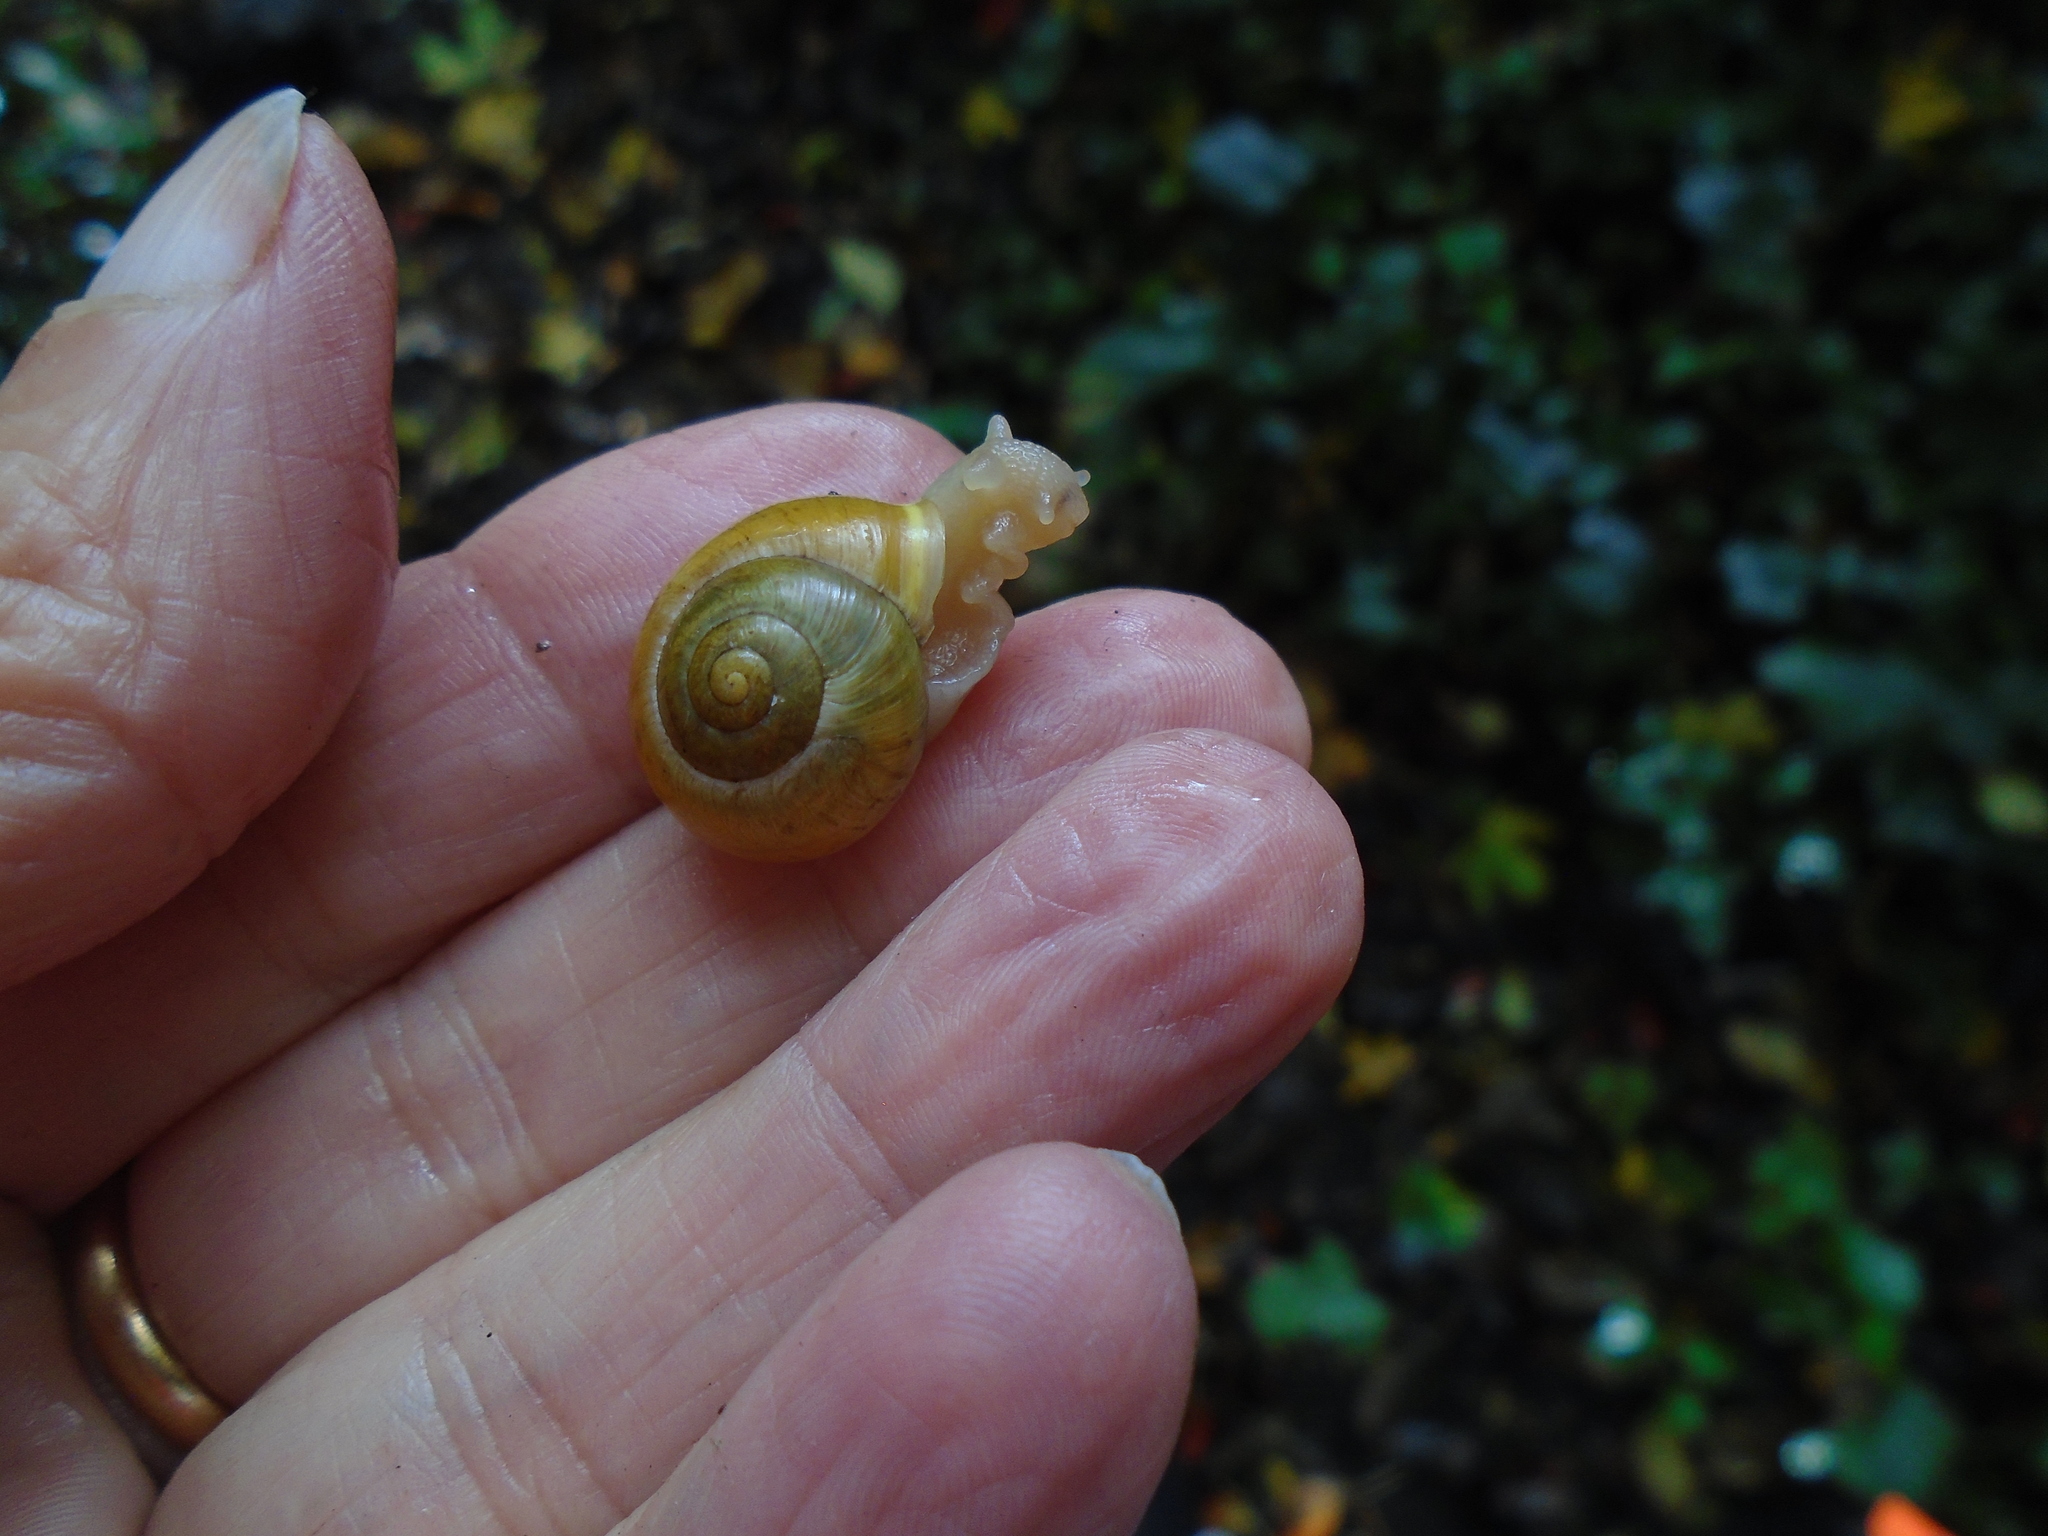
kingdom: Animalia
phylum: Mollusca
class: Gastropoda
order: Stylommatophora
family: Helicidae
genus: Cepaea
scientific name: Cepaea hortensis
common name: White-lip gardensnail
